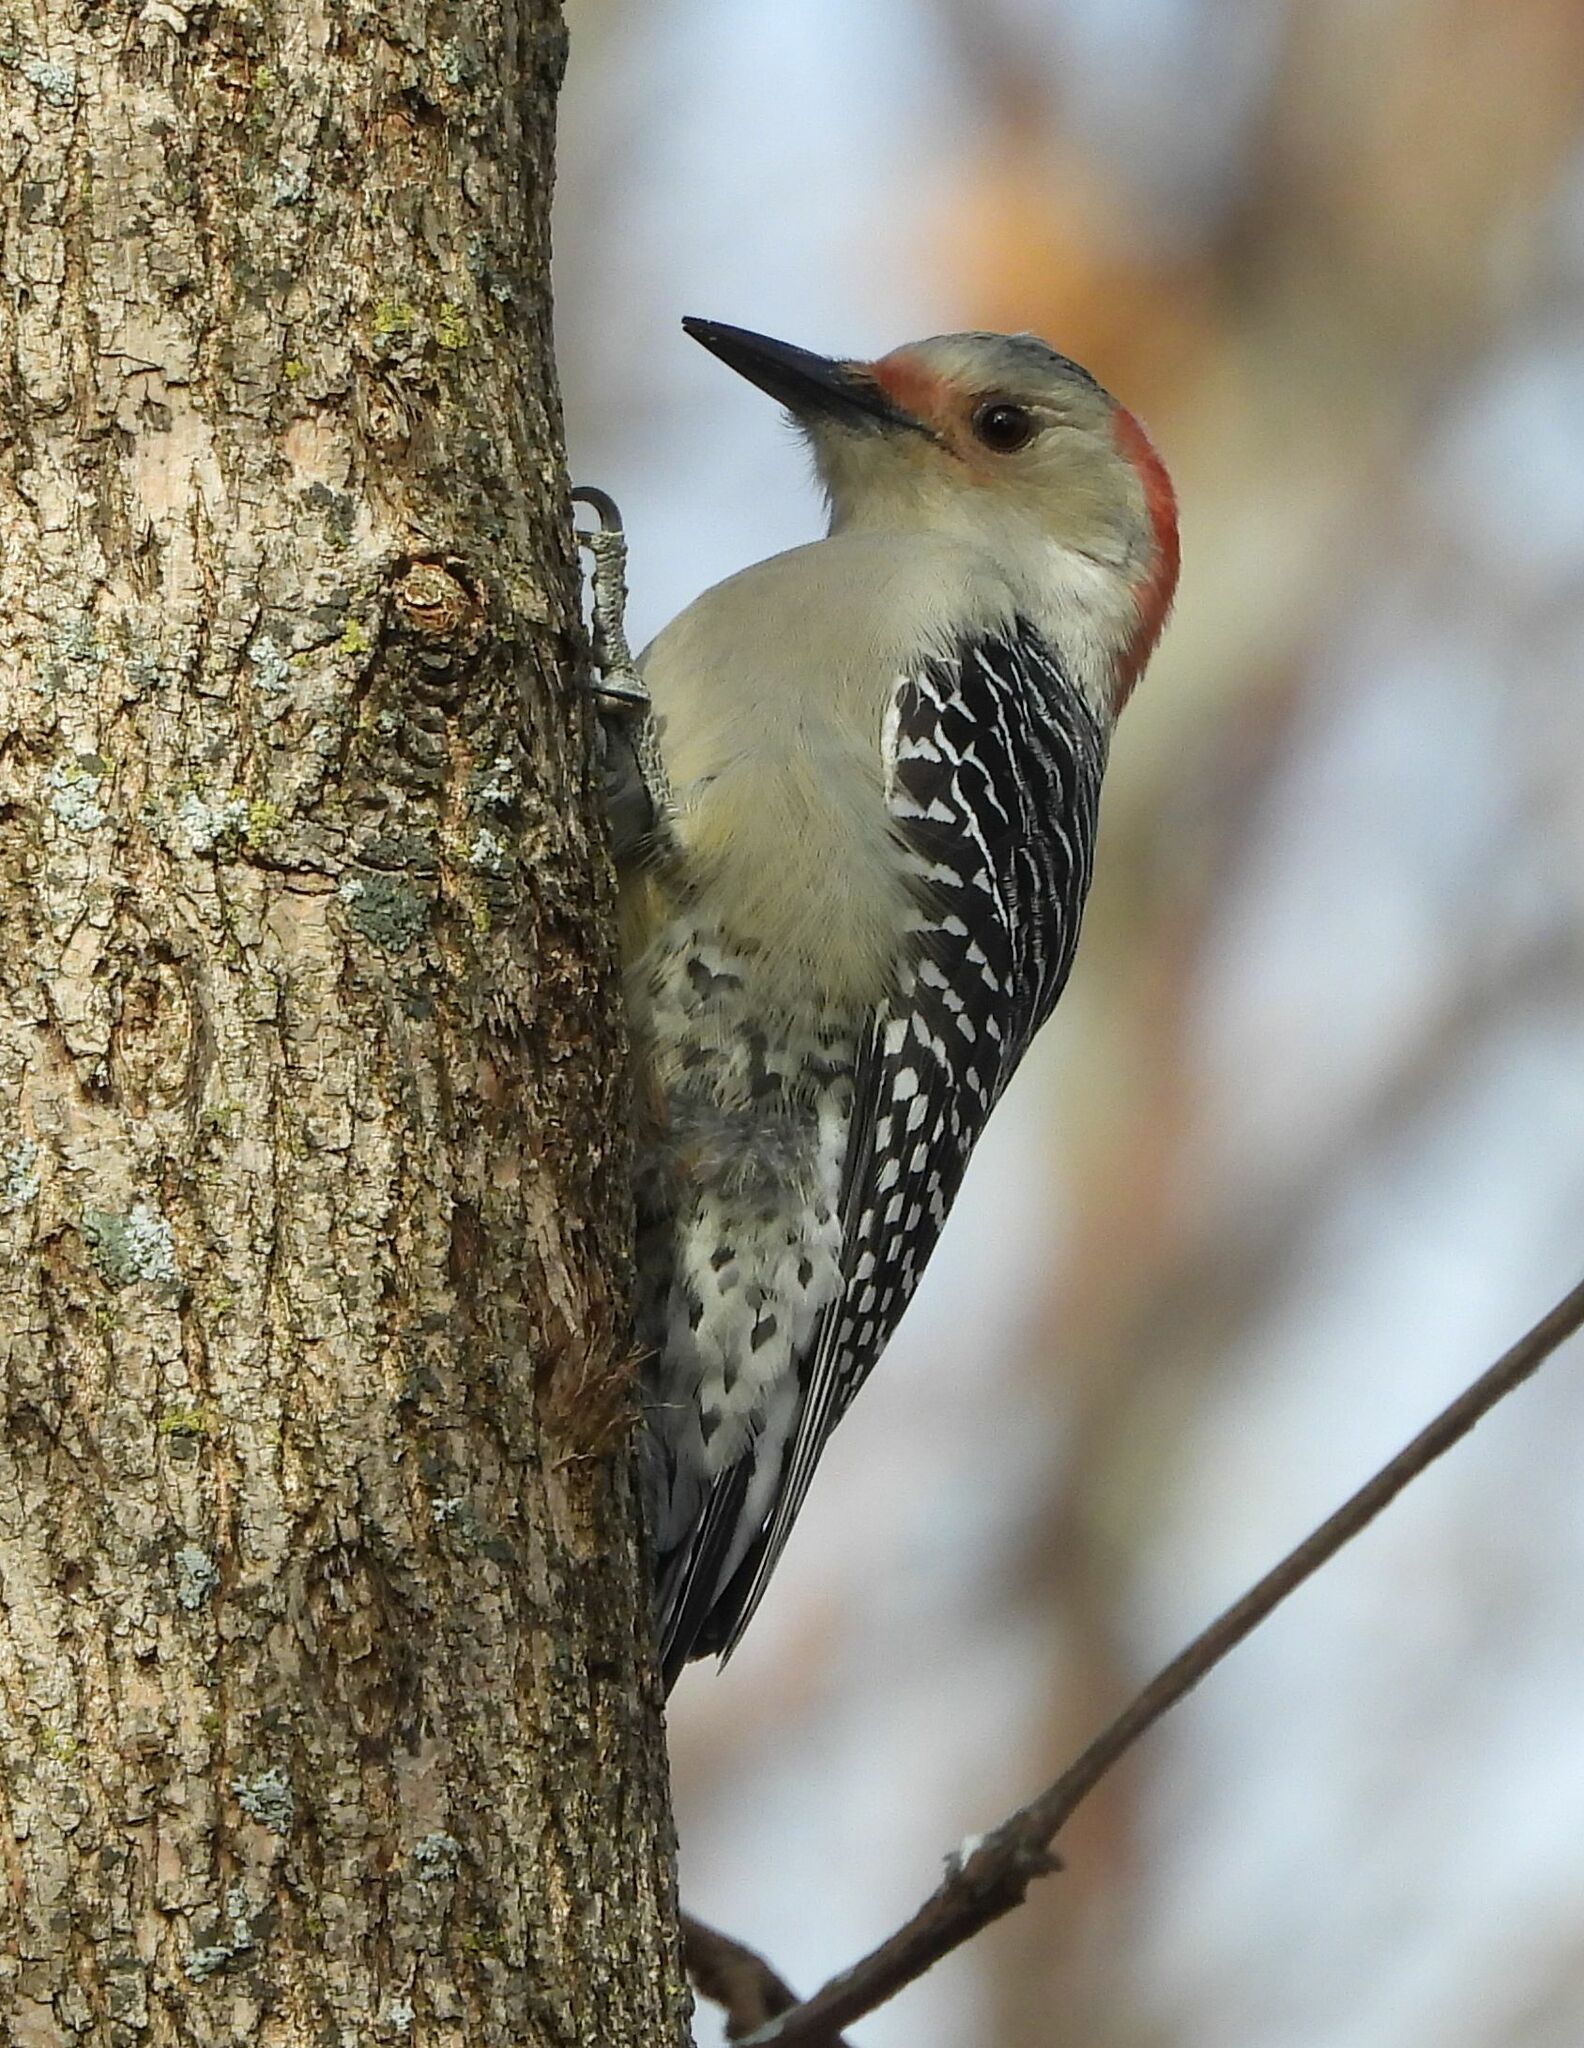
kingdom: Animalia
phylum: Chordata
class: Aves
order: Piciformes
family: Picidae
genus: Melanerpes
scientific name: Melanerpes carolinus
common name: Red-bellied woodpecker
